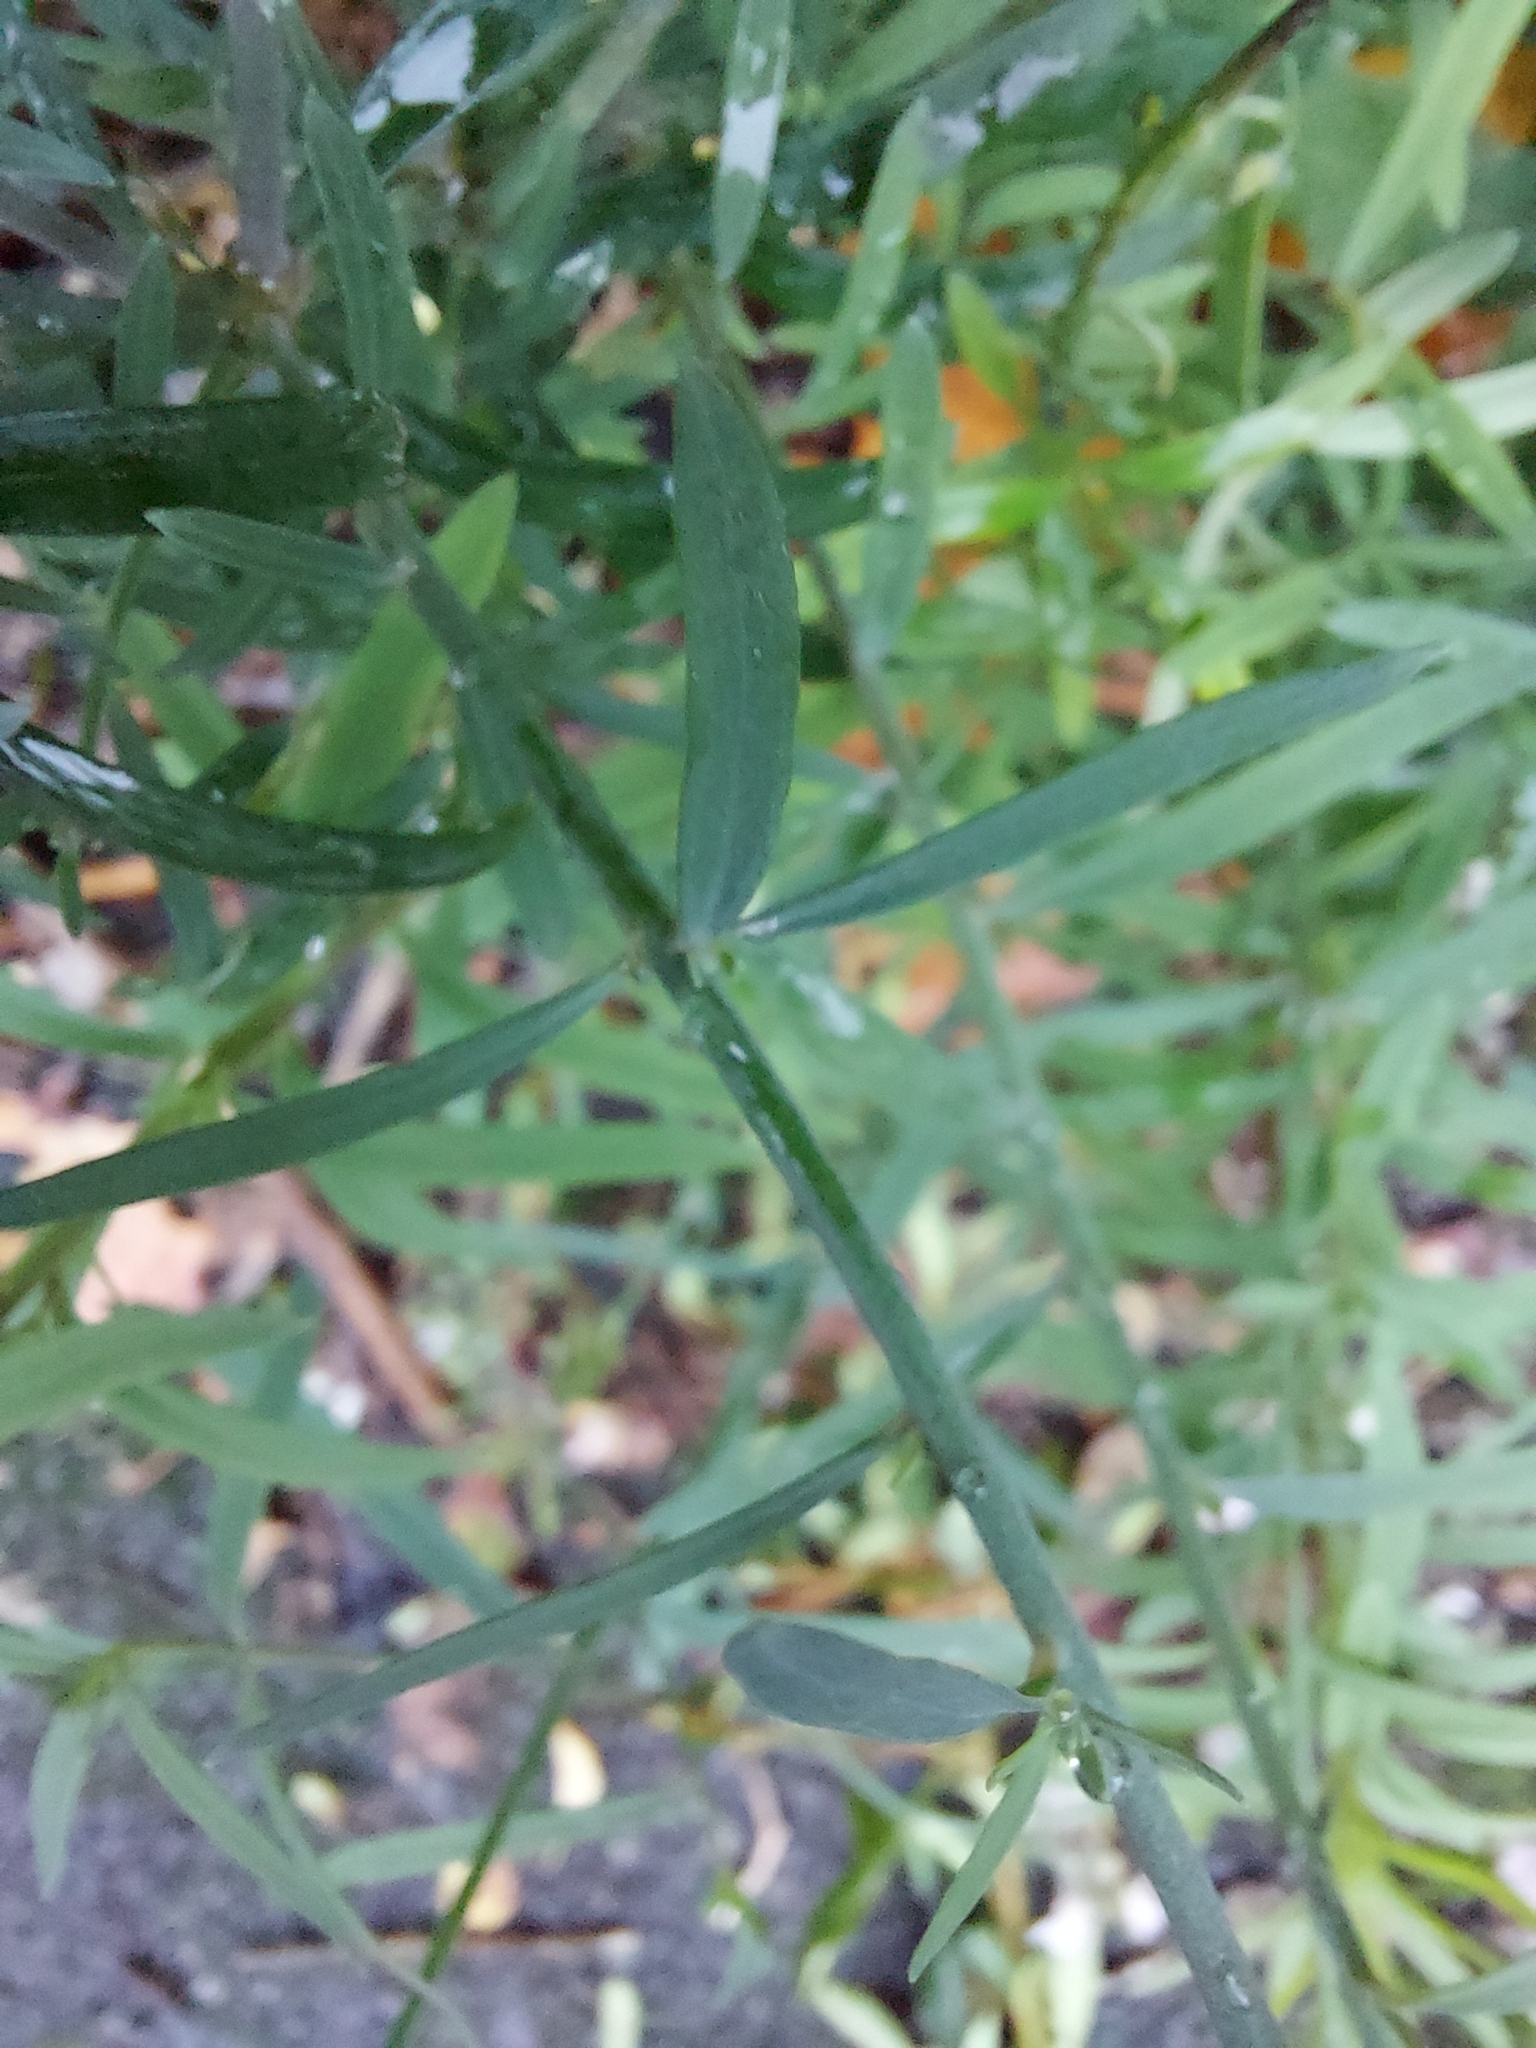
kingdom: Plantae
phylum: Tracheophyta
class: Magnoliopsida
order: Lamiales
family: Plantaginaceae
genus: Linaria
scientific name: Linaria purpurea
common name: Purple toadflax
